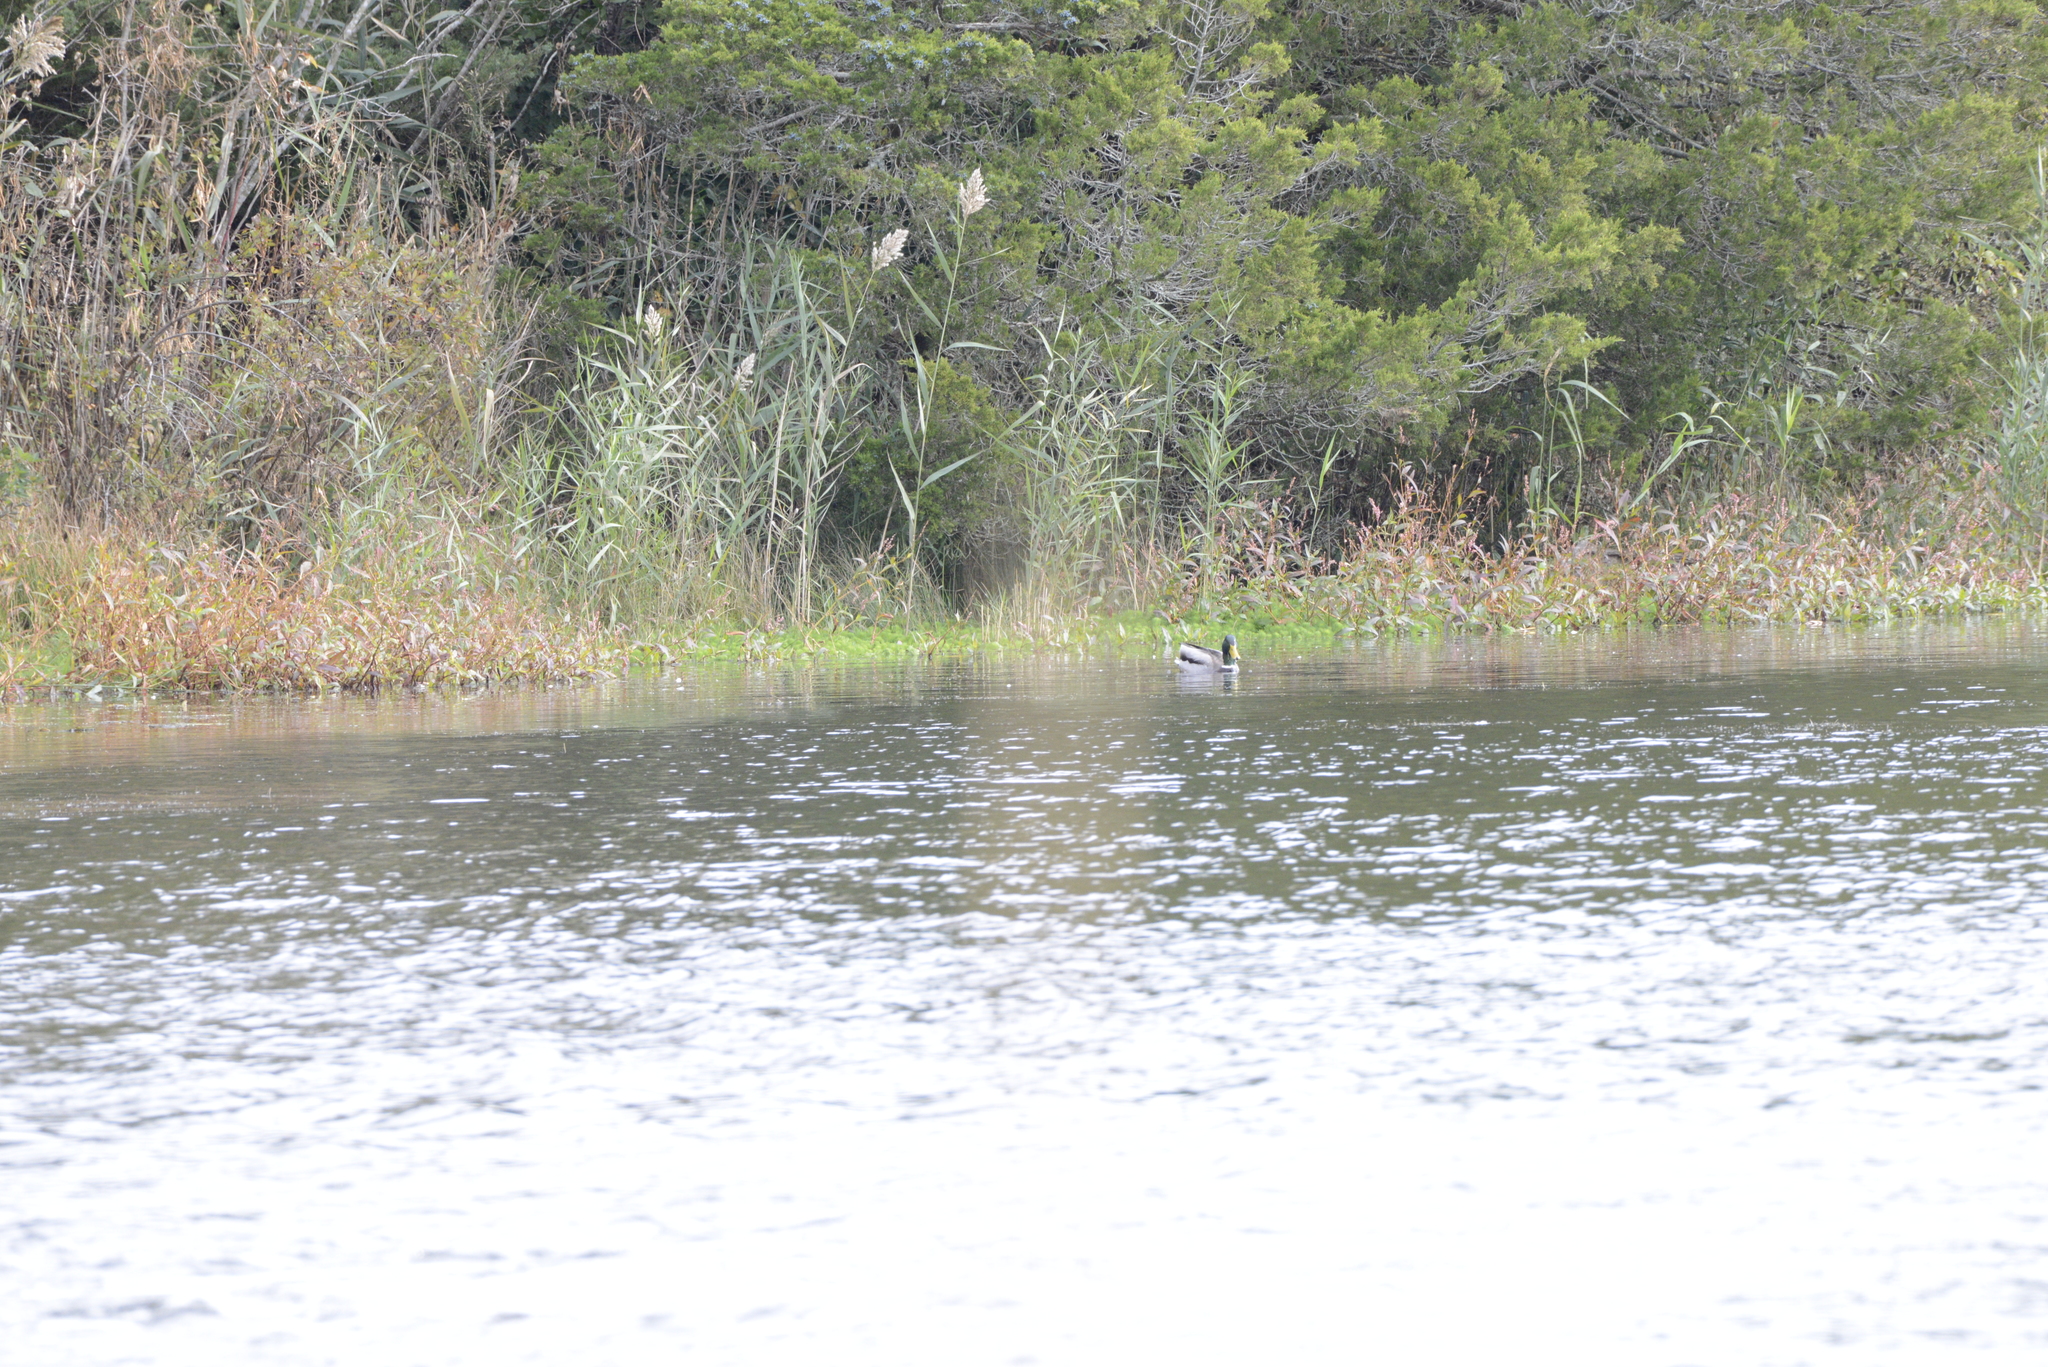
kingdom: Animalia
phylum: Chordata
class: Aves
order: Anseriformes
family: Anatidae
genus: Anas
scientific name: Anas platyrhynchos
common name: Mallard
